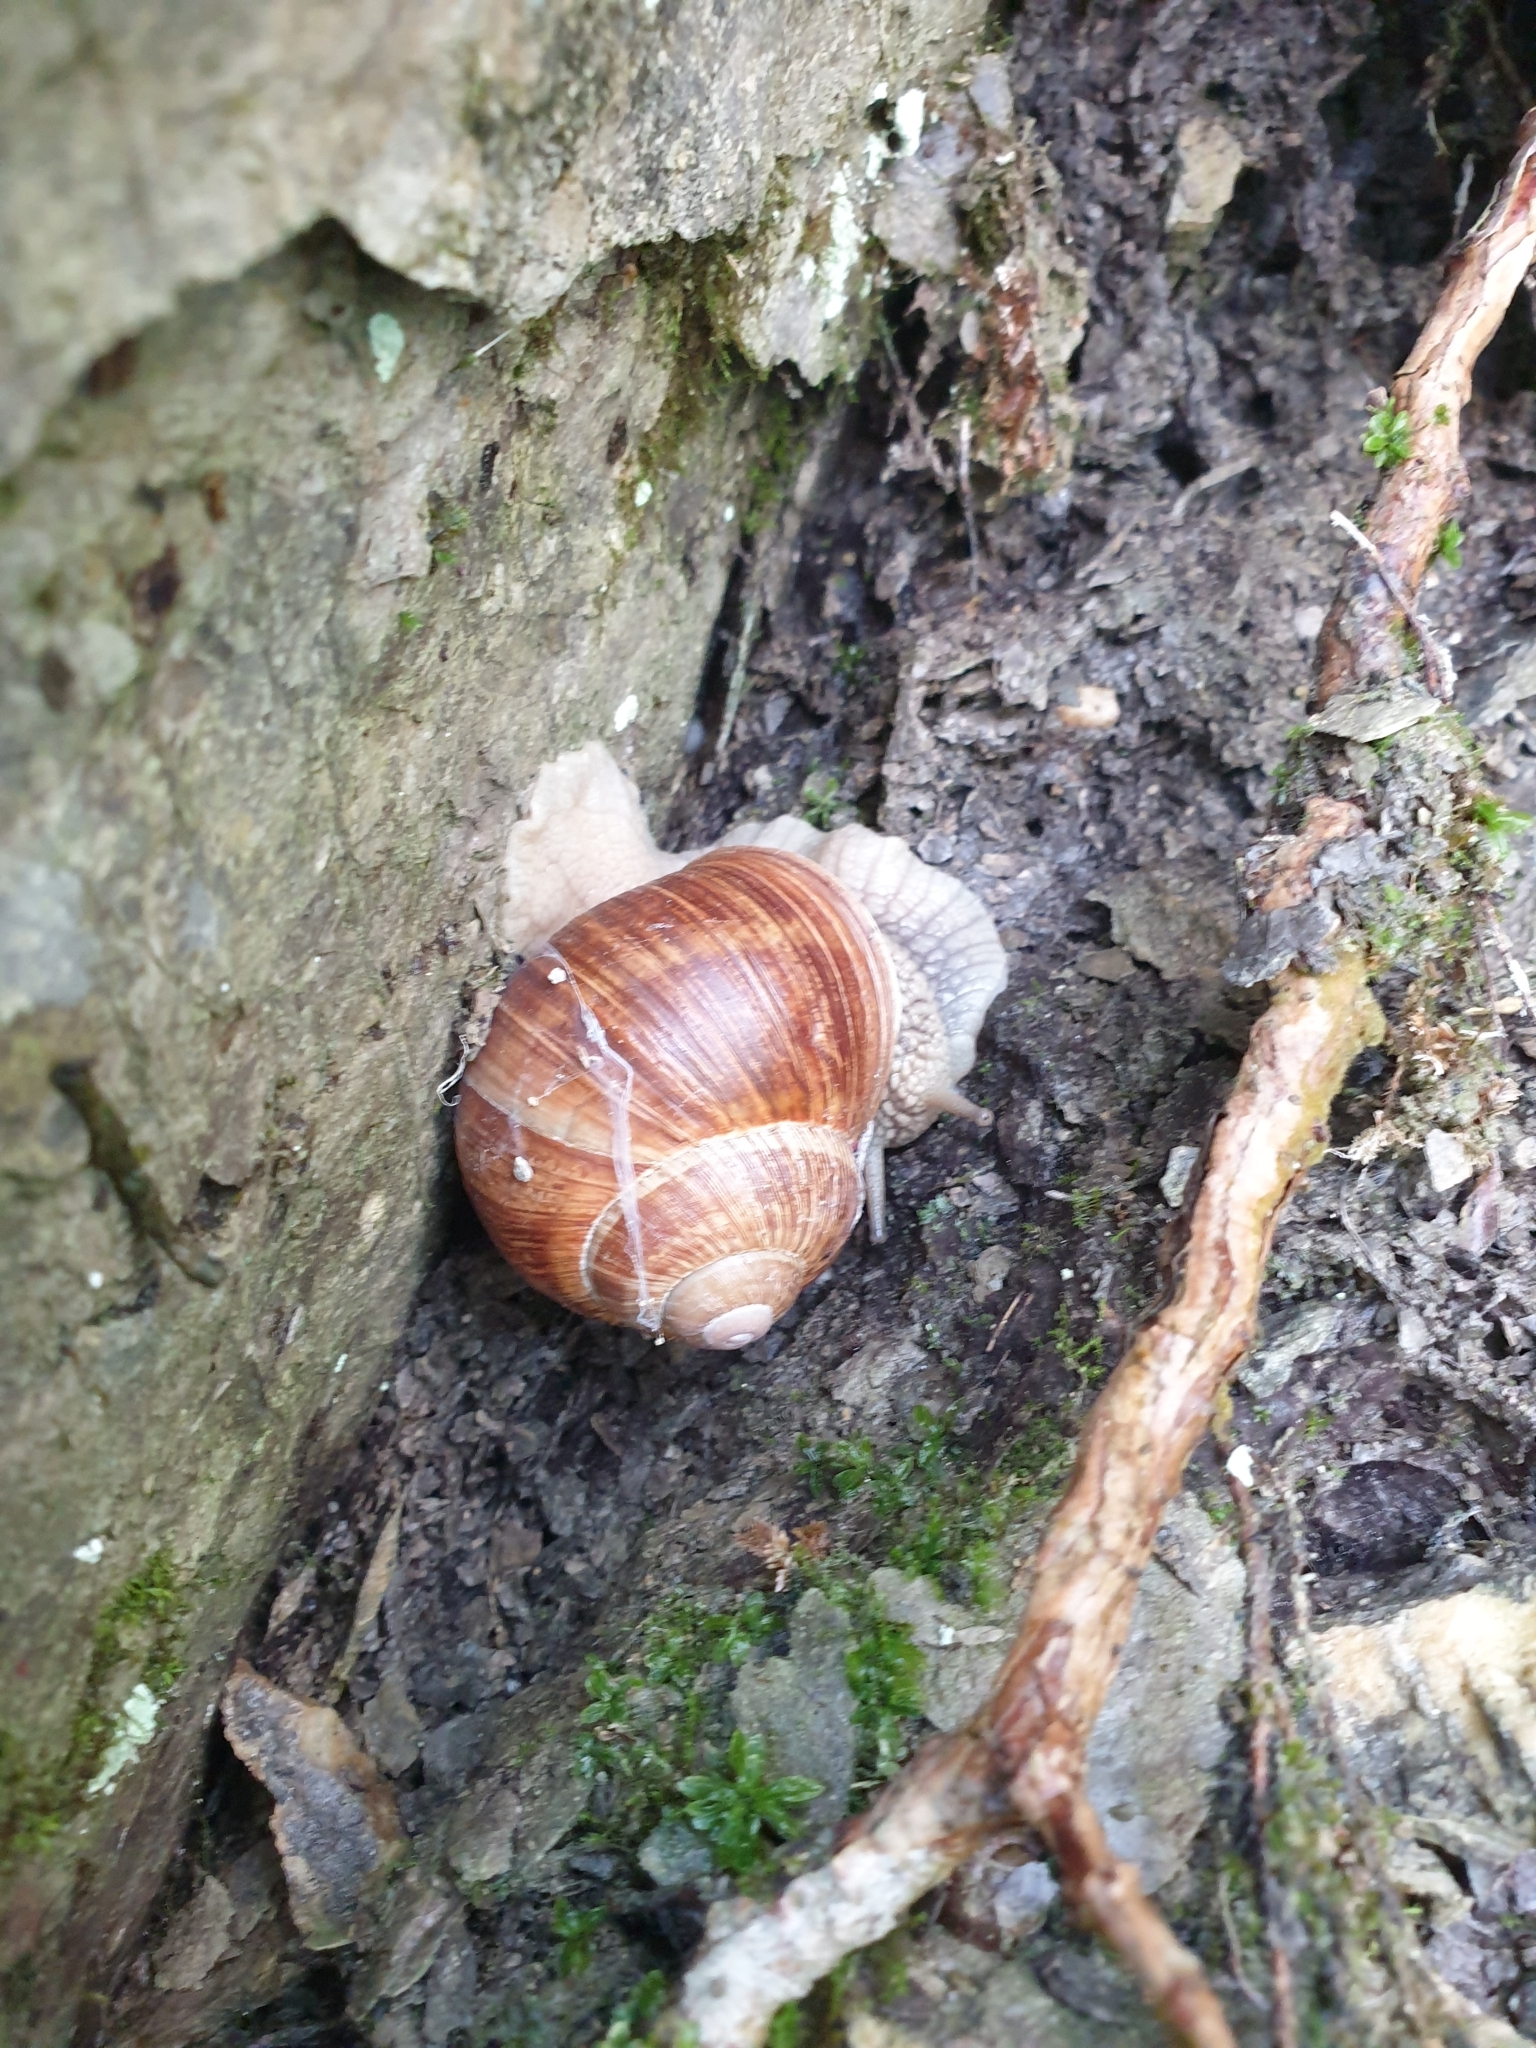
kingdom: Animalia
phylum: Mollusca
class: Gastropoda
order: Stylommatophora
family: Helicidae
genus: Helix
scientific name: Helix pomatia
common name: Roman snail
